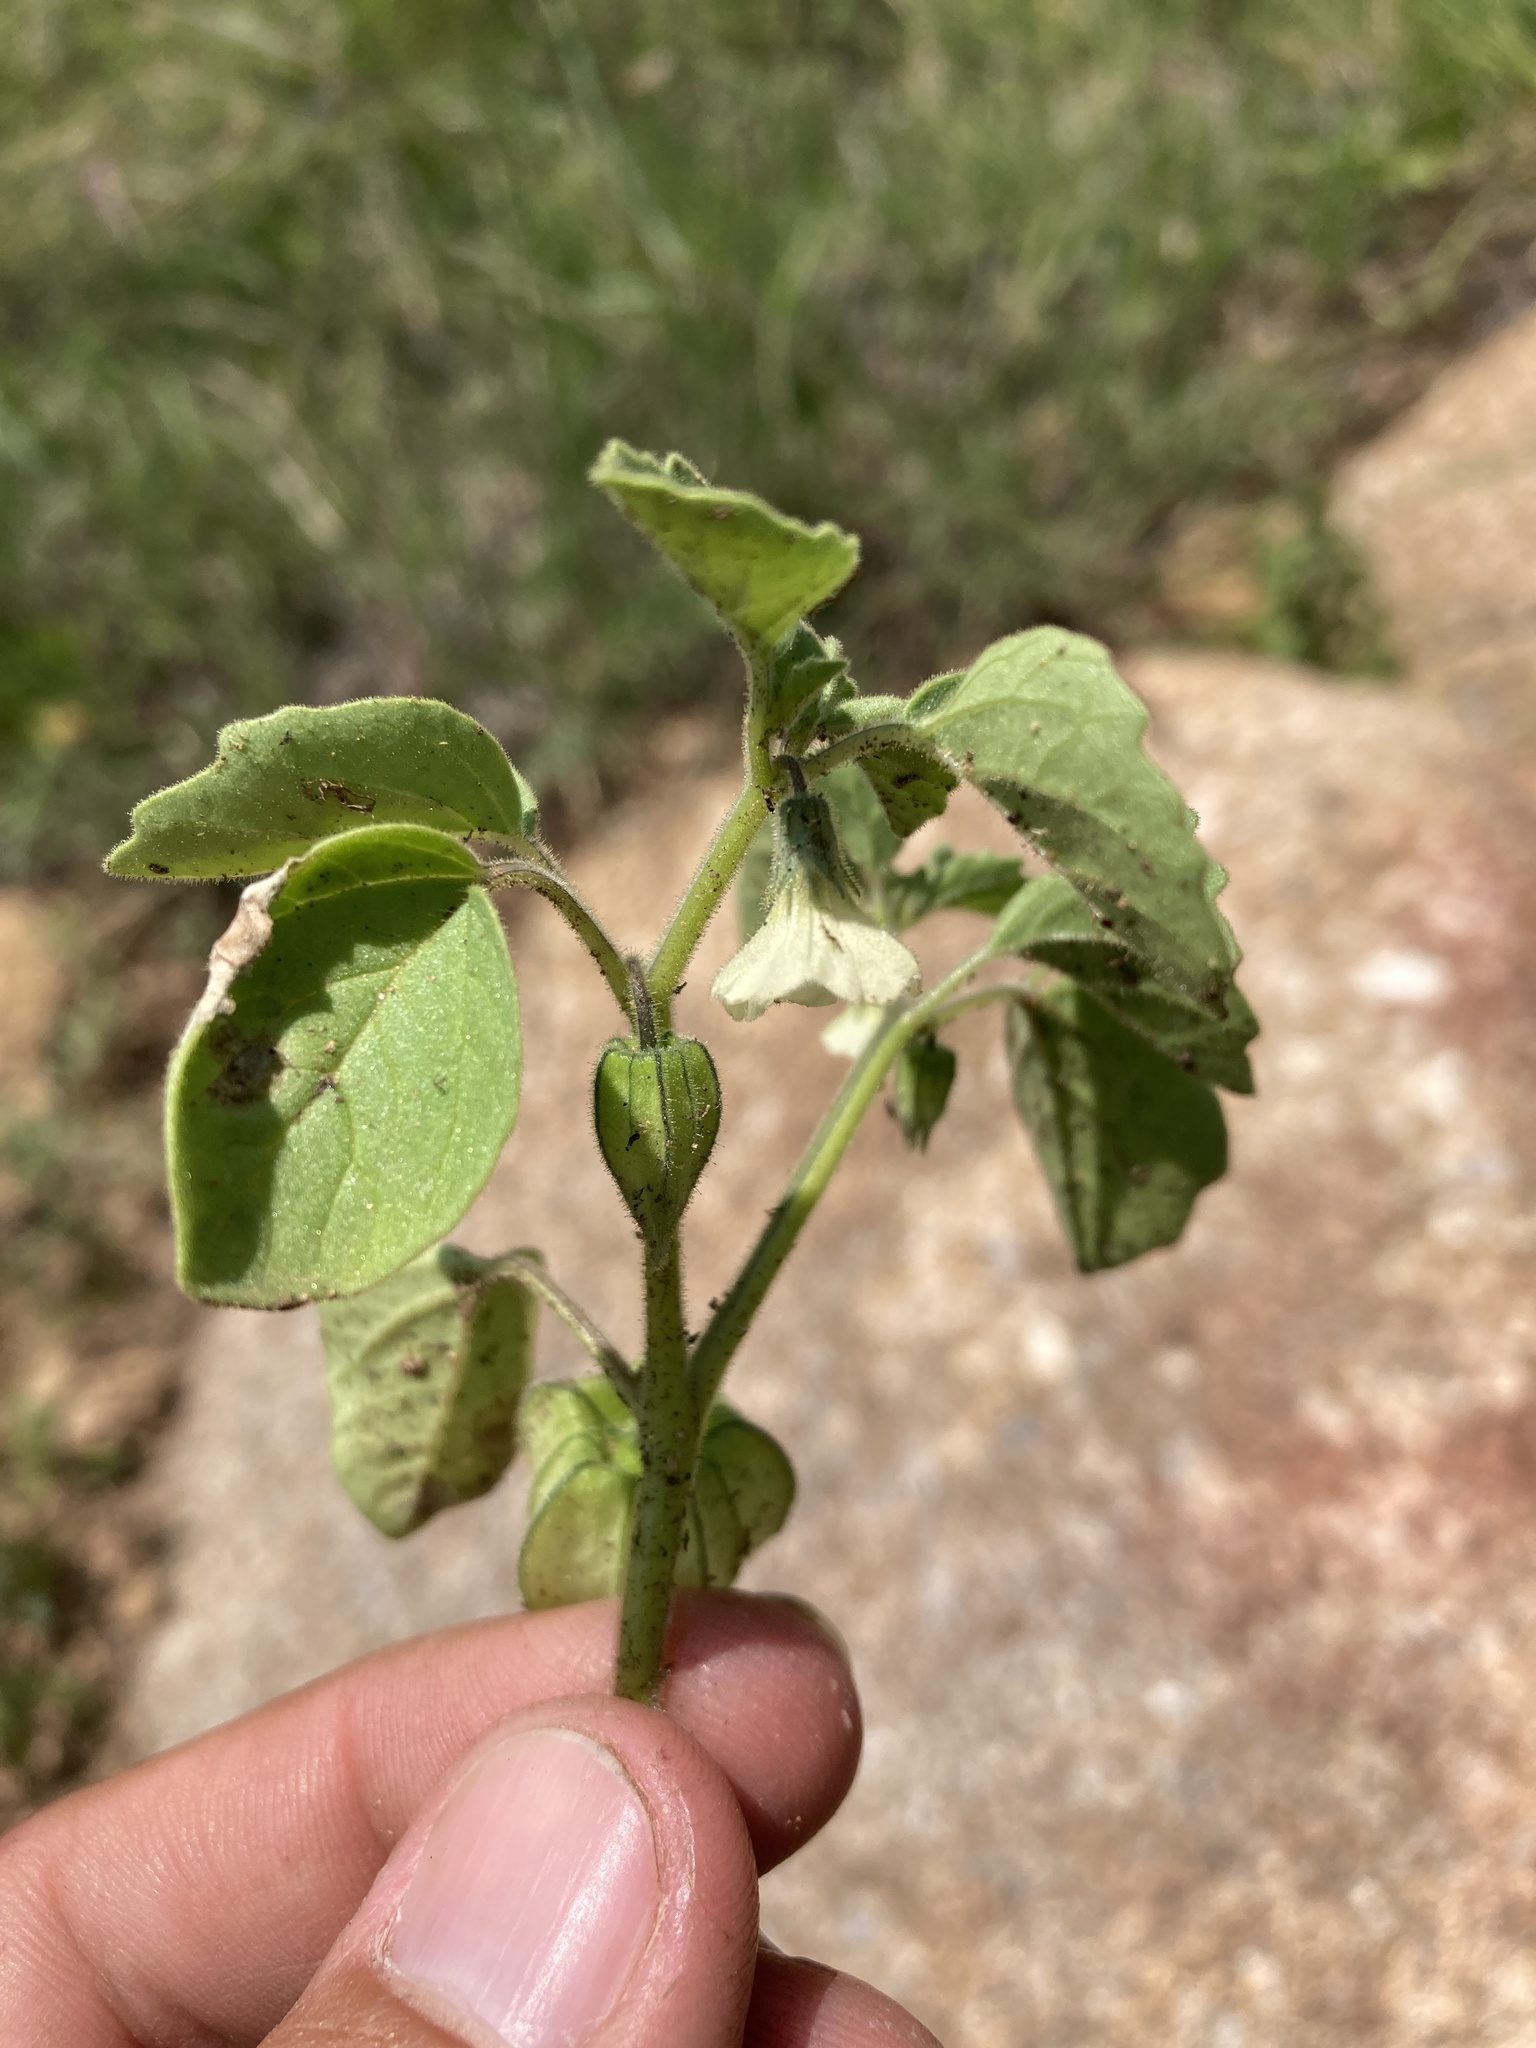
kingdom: Plantae
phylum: Tracheophyta
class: Magnoliopsida
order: Solanales
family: Solanaceae
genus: Physalis
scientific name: Physalis neomexicana
